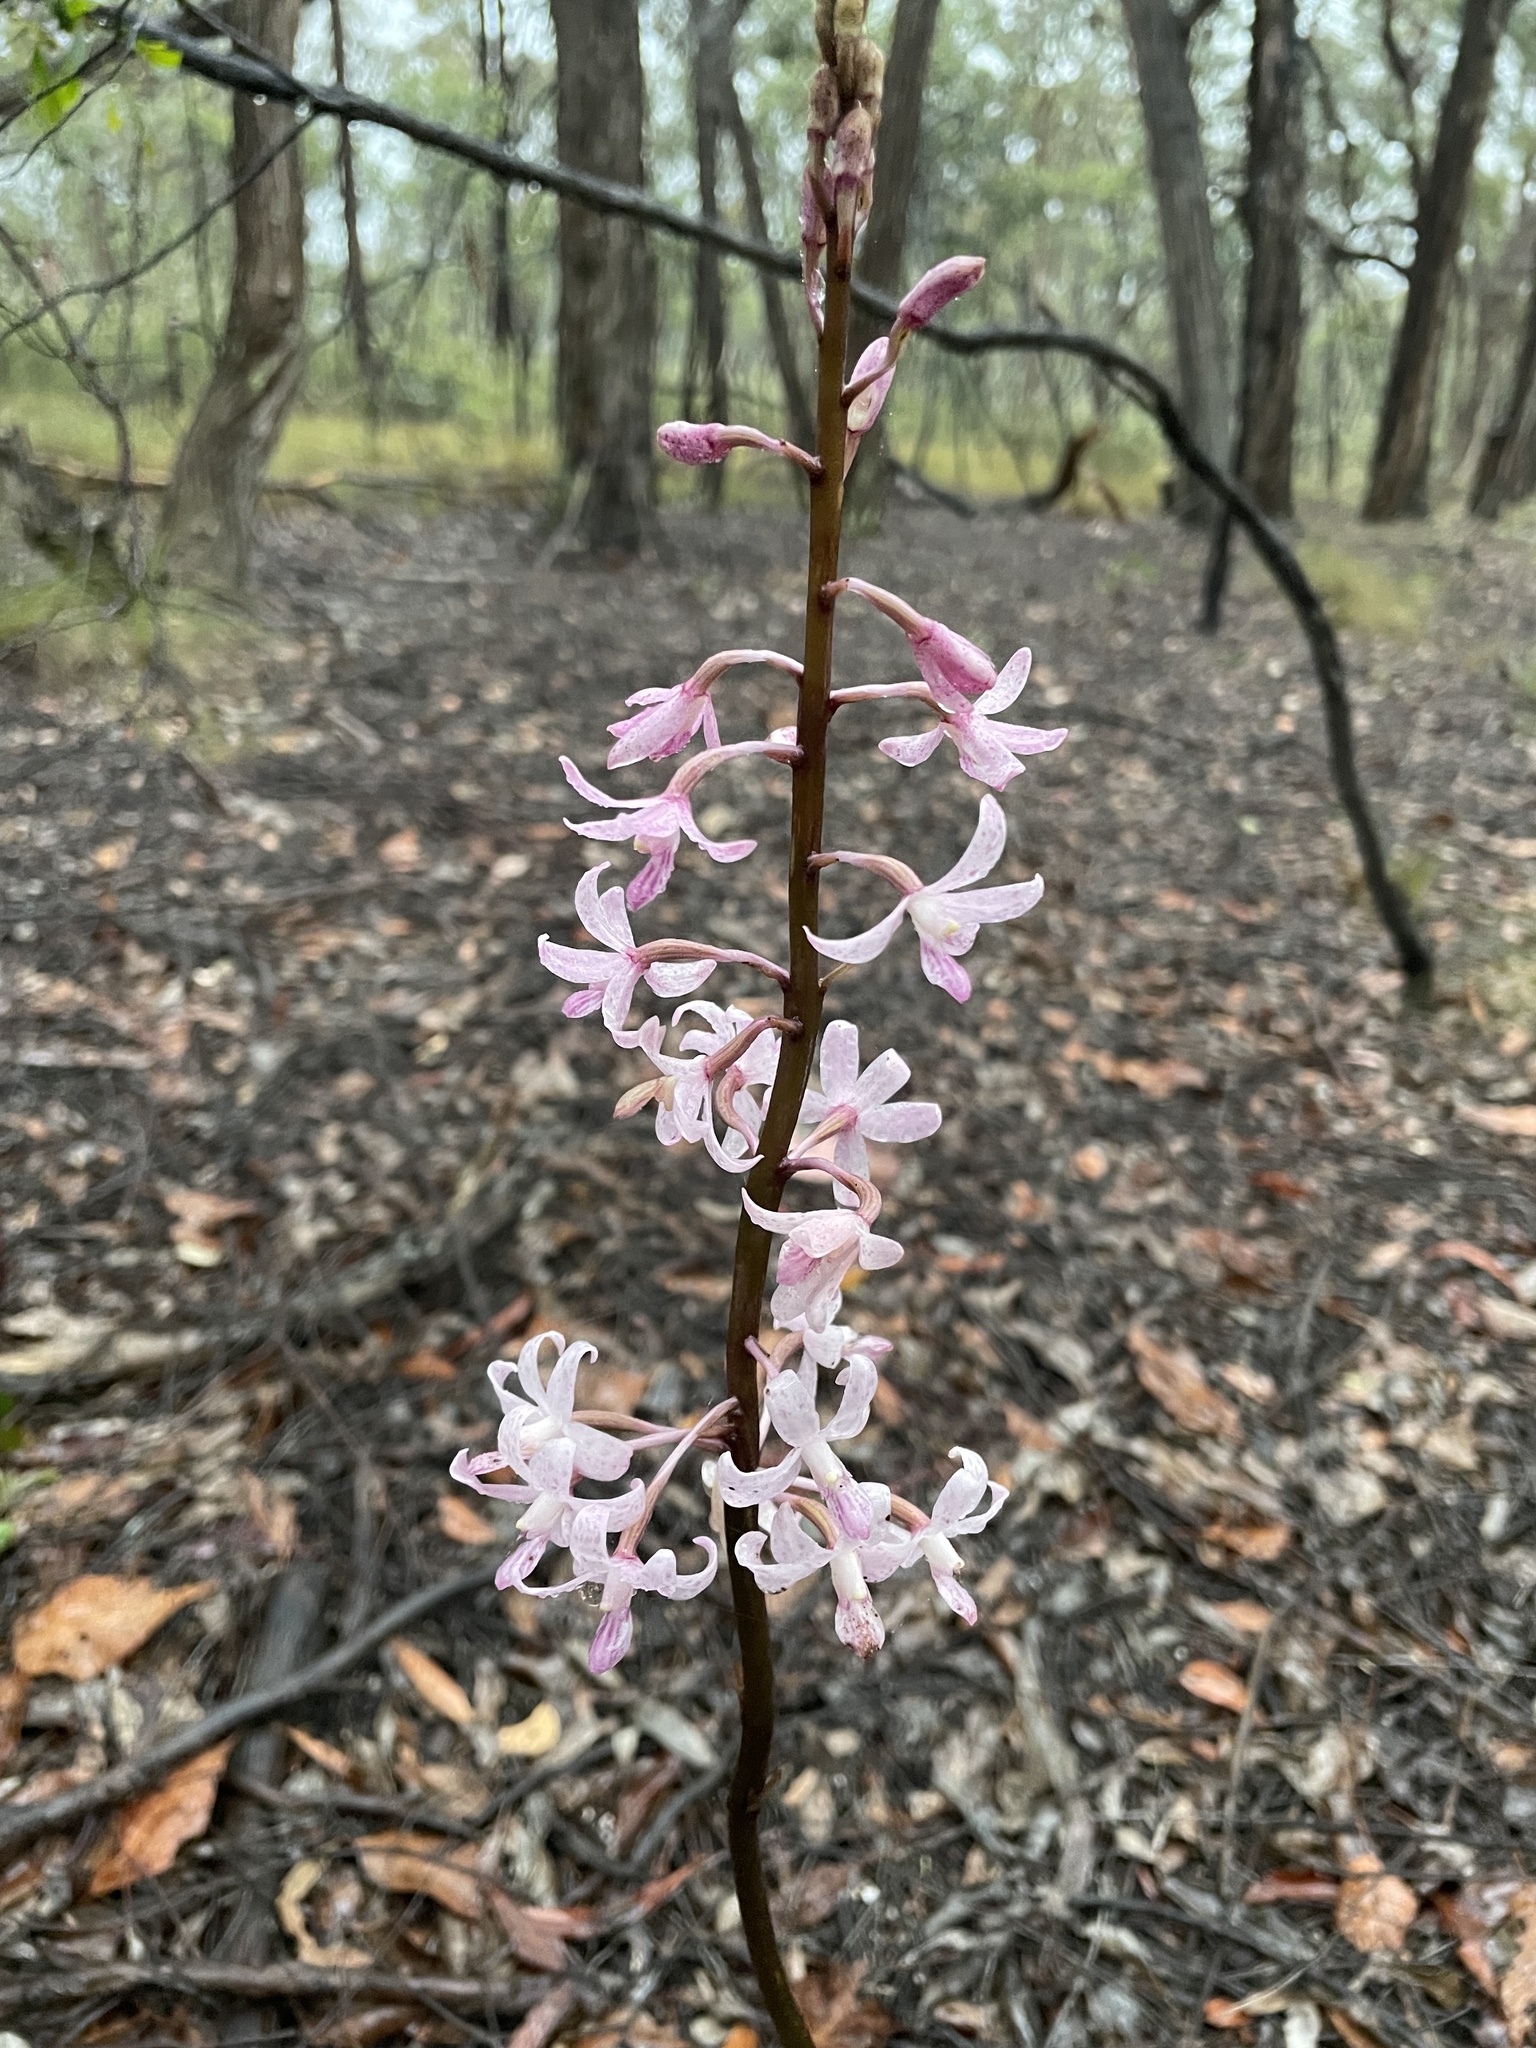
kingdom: Plantae
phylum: Tracheophyta
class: Liliopsida
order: Asparagales
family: Orchidaceae
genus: Dipodium
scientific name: Dipodium roseum
